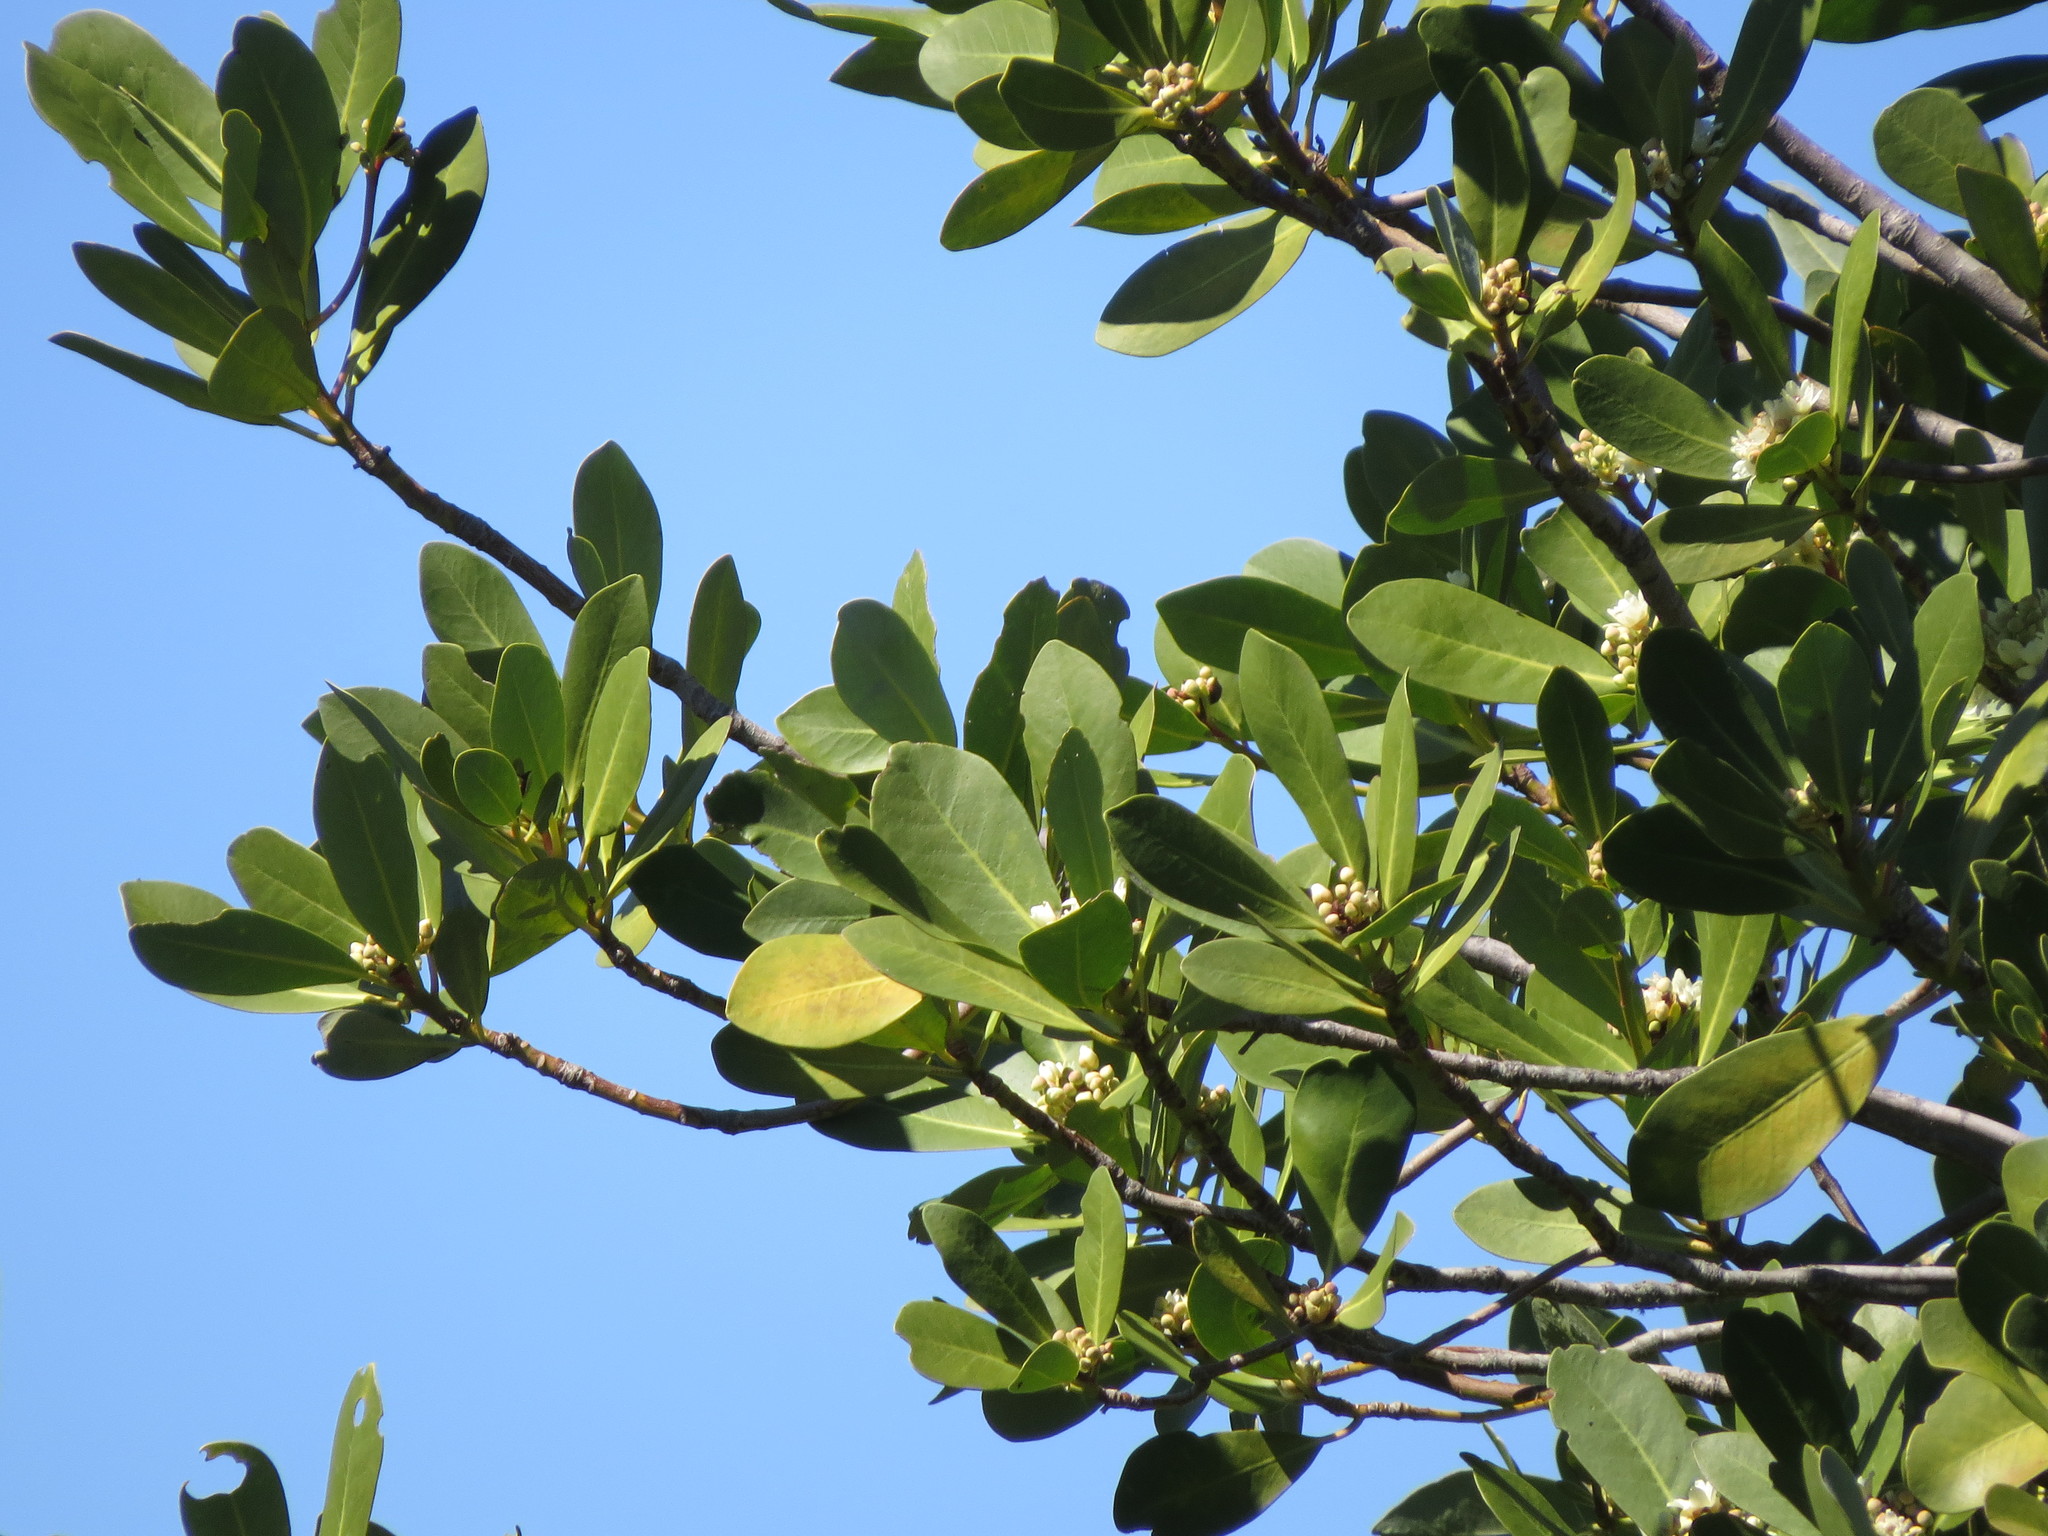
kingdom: Plantae
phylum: Tracheophyta
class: Magnoliopsida
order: Canellales
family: Winteraceae
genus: Drimys
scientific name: Drimys winteri
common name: Winter's-bark
